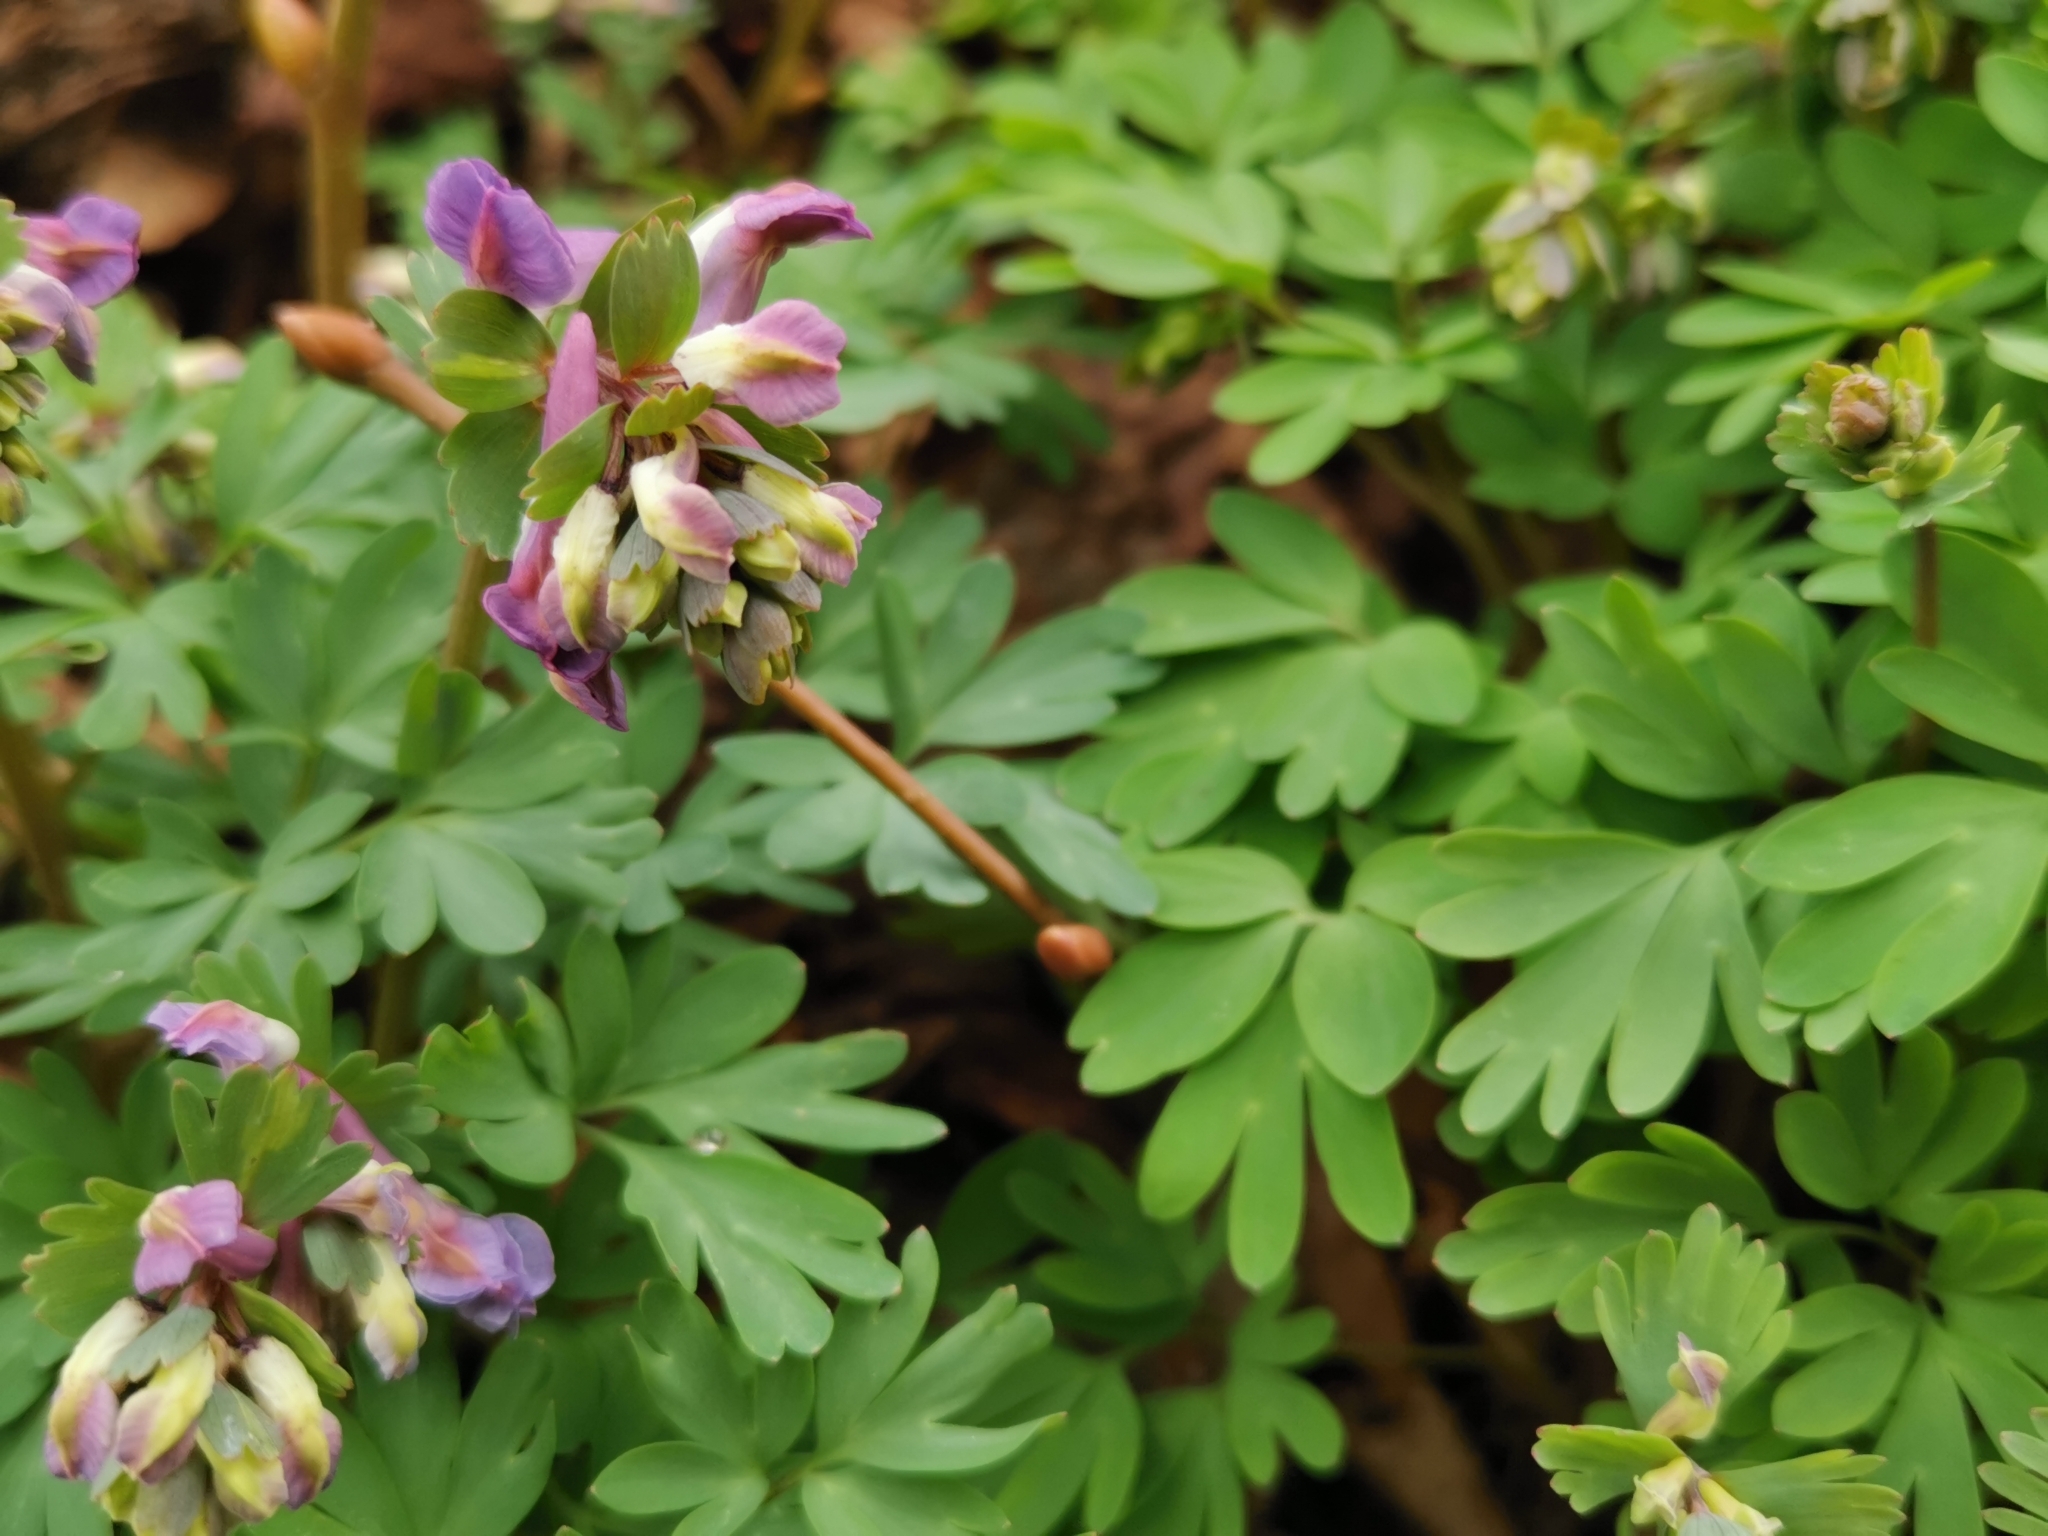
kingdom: Plantae
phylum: Tracheophyta
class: Magnoliopsida
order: Ranunculales
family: Papaveraceae
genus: Corydalis
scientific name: Corydalis solida
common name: Bird-in-a-bush
